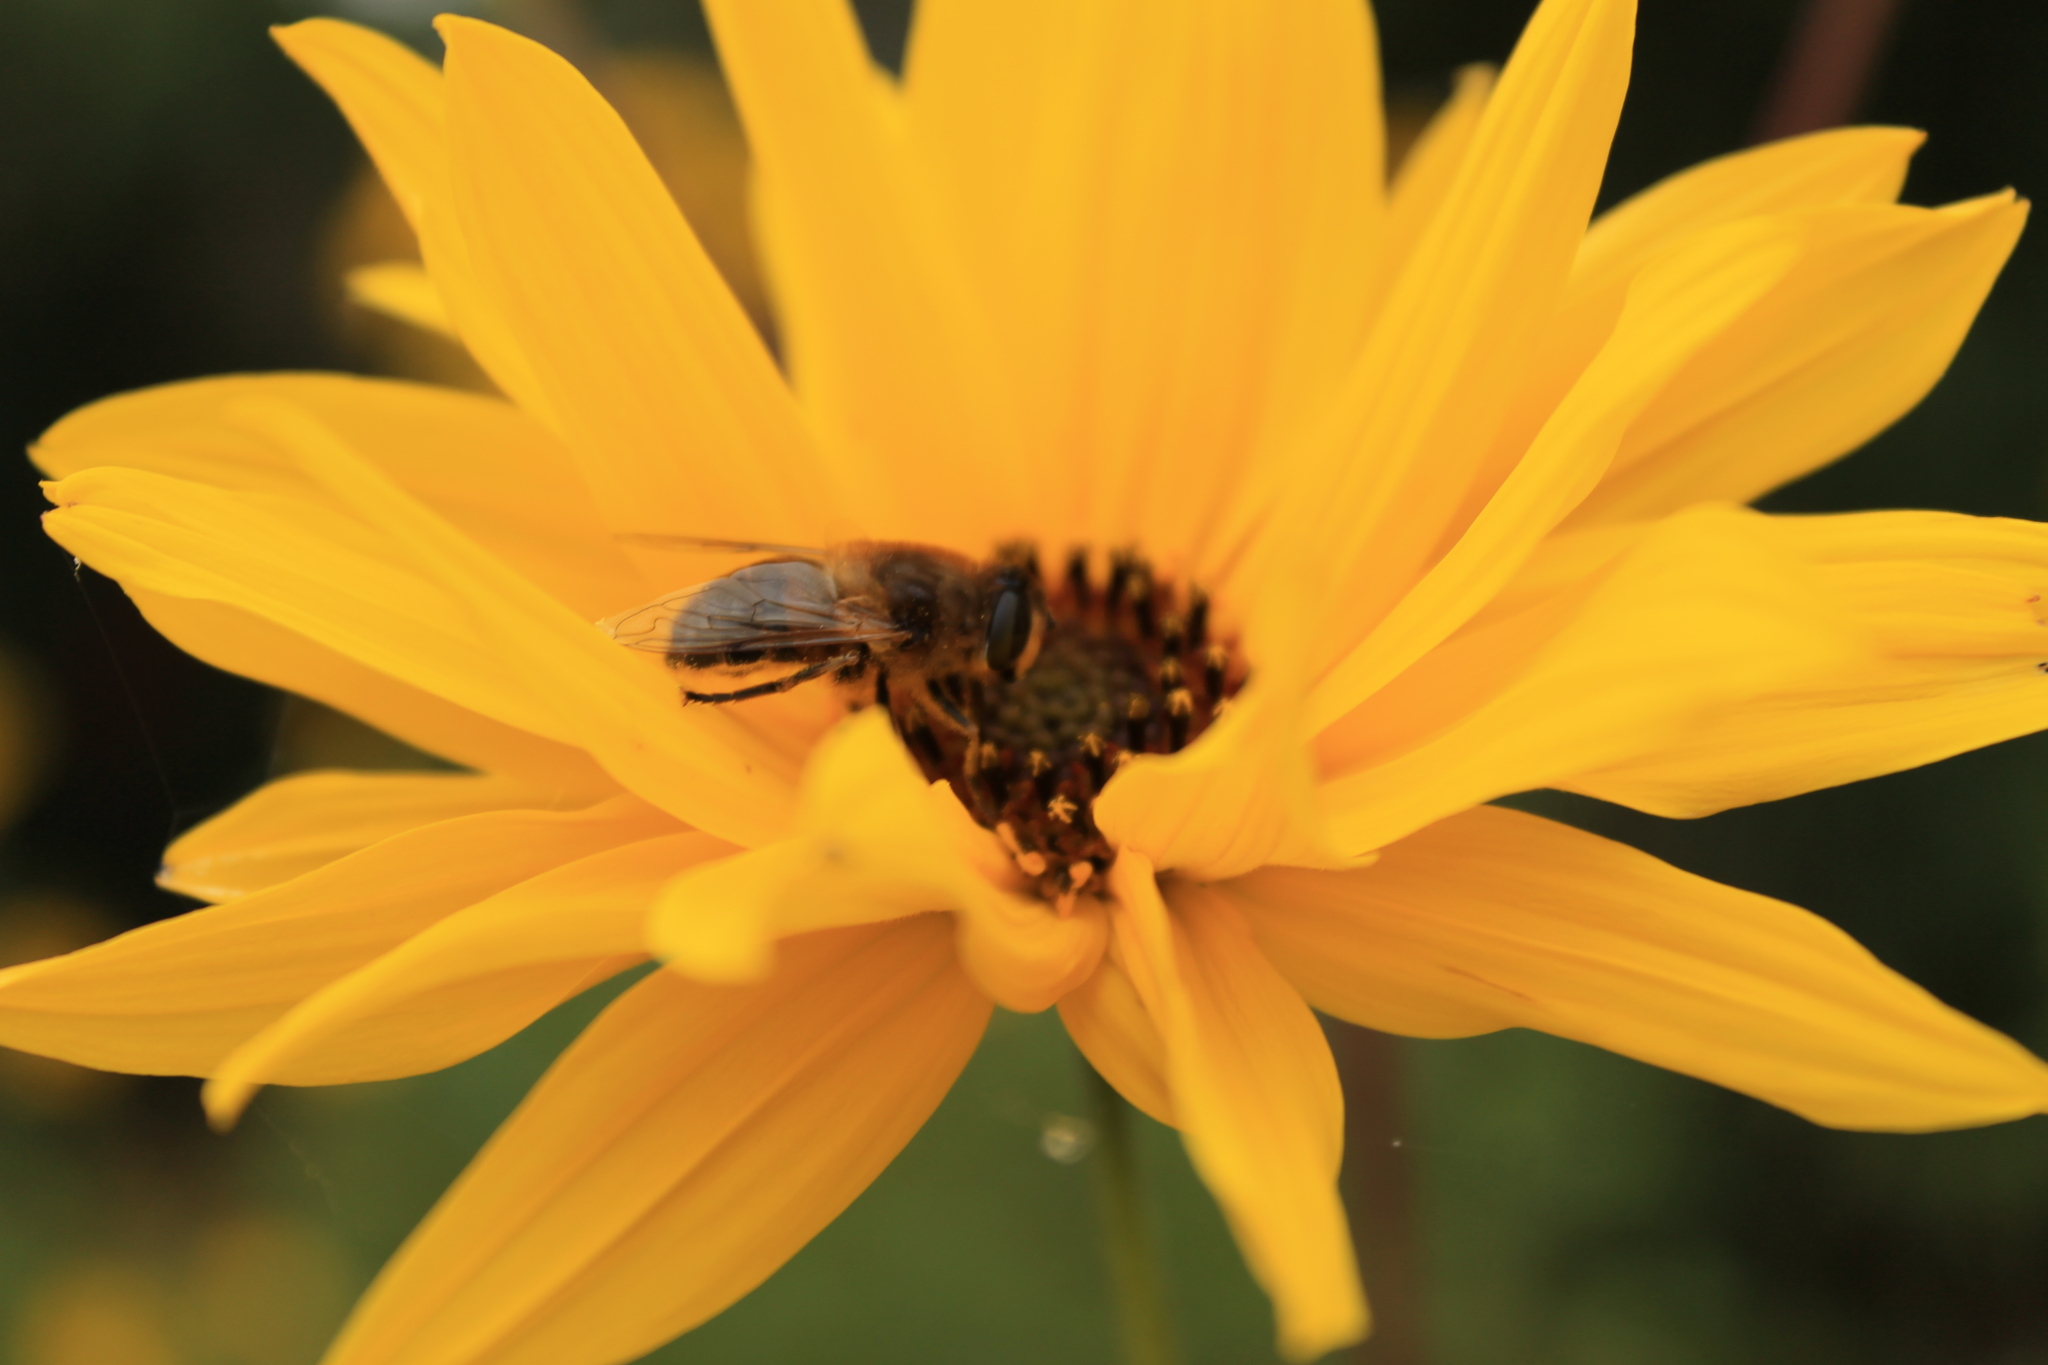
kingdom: Animalia
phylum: Arthropoda
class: Insecta
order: Diptera
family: Syrphidae
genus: Eristalis
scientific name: Eristalis tenax
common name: Drone fly
